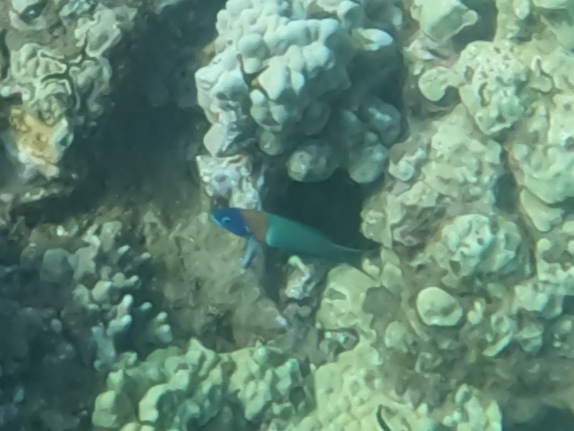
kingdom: Animalia
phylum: Chordata
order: Perciformes
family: Labridae
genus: Thalassoma
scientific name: Thalassoma duperrey
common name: Saddle wrasse
